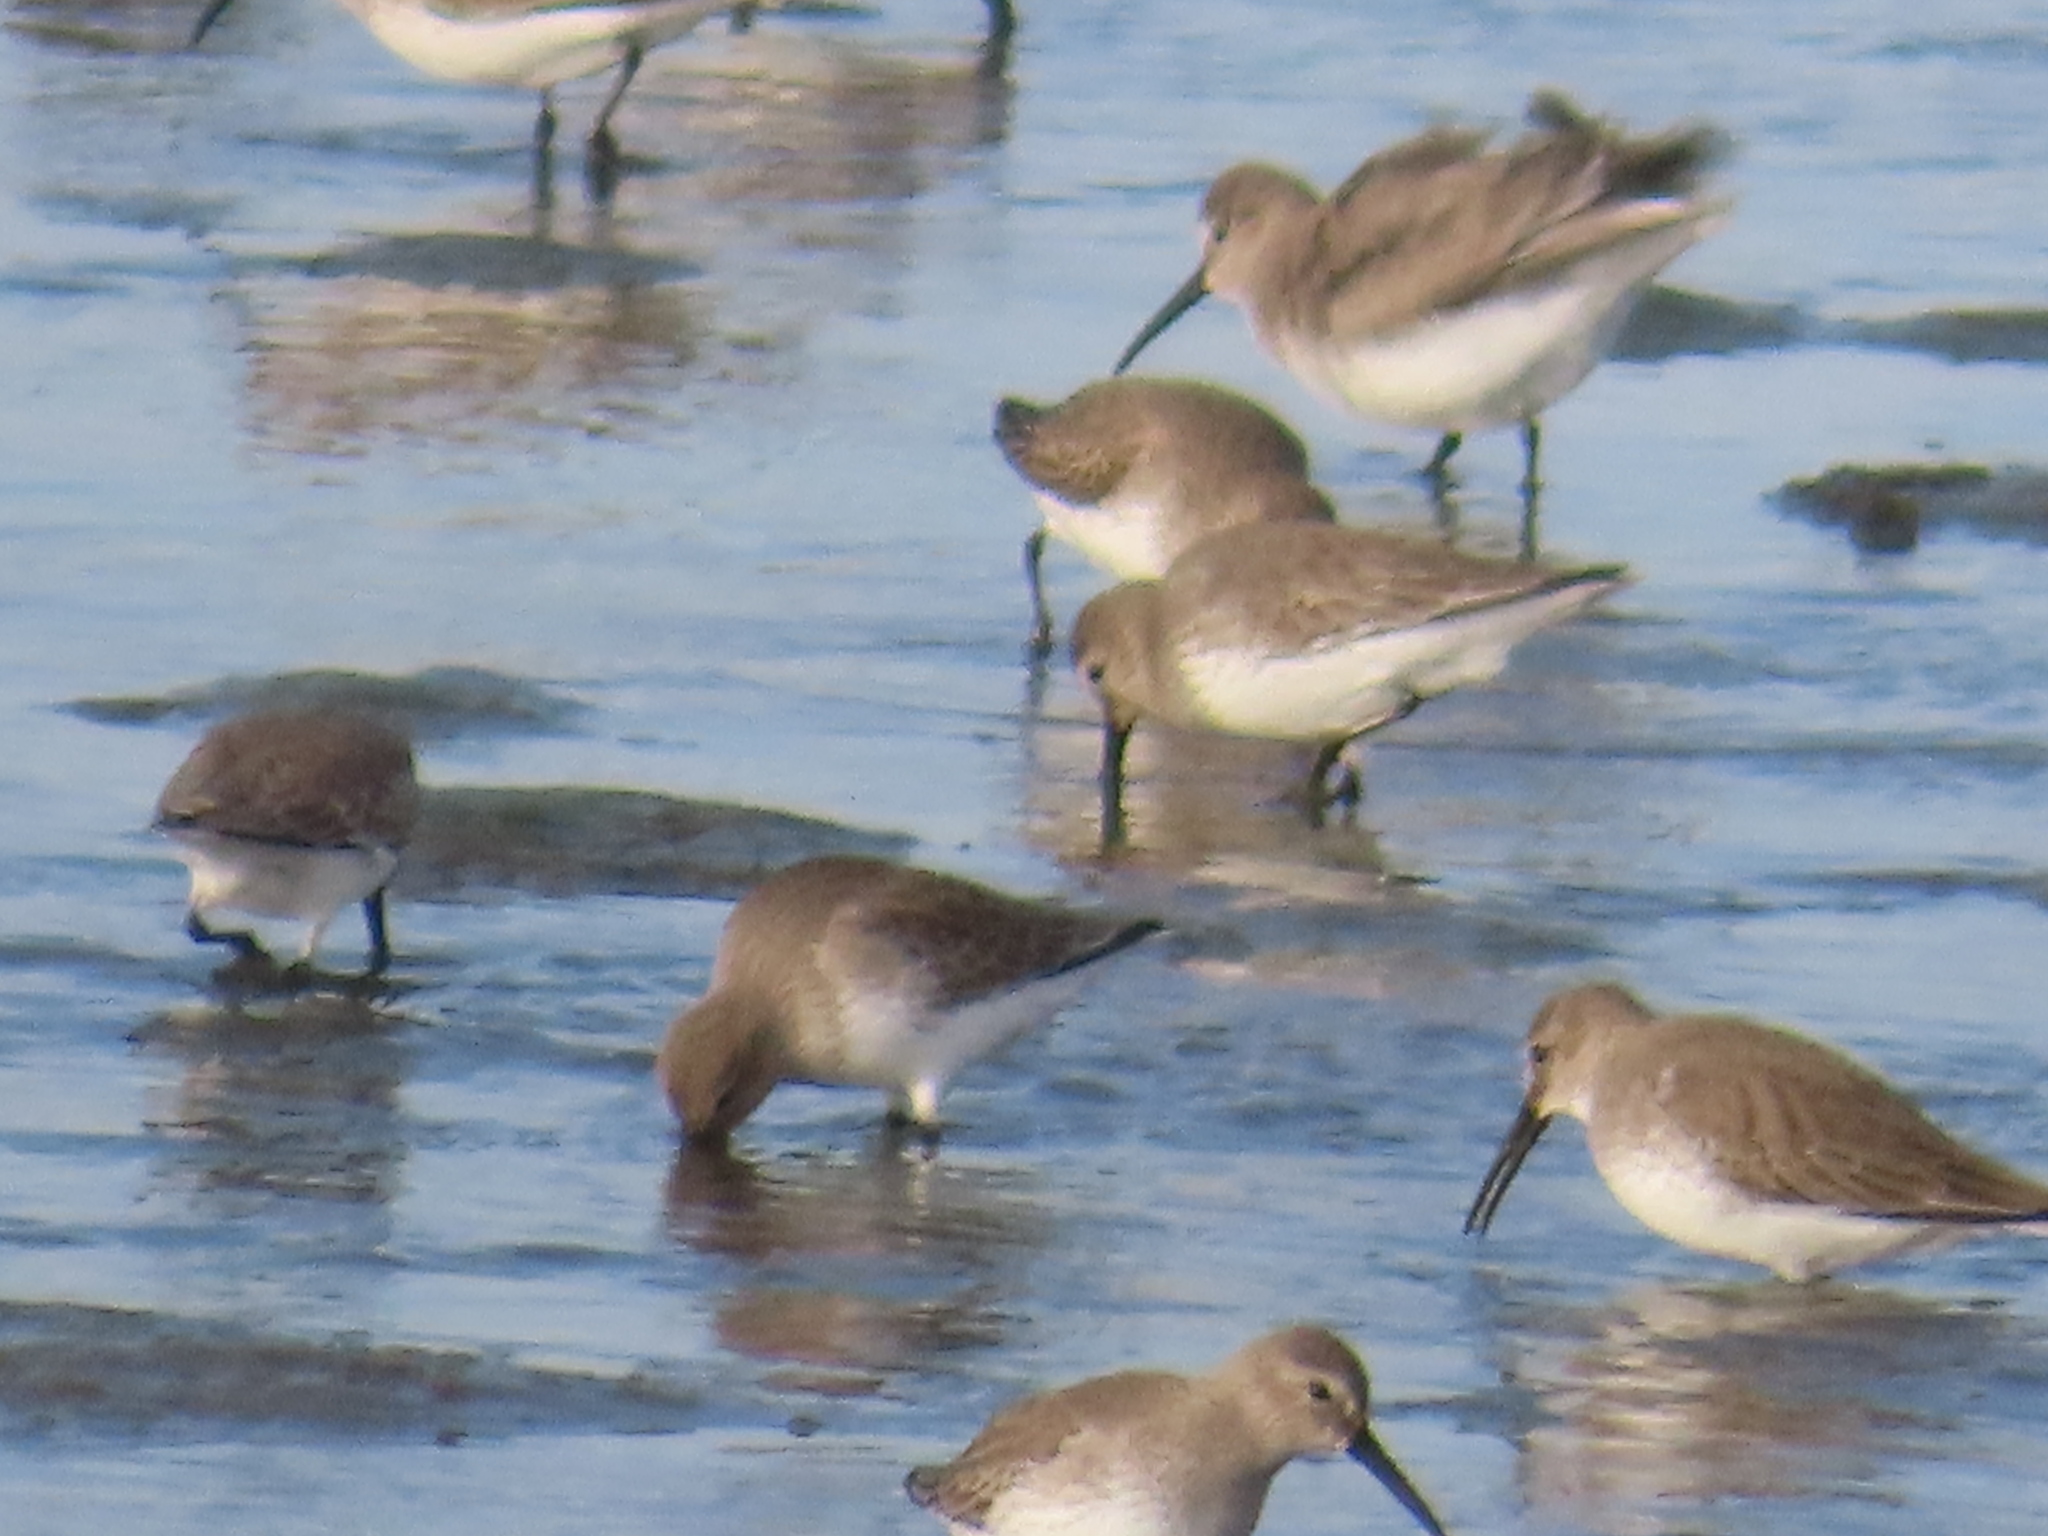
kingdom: Animalia
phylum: Chordata
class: Aves
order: Charadriiformes
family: Scolopacidae
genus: Calidris
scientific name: Calidris alpina
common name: Dunlin
